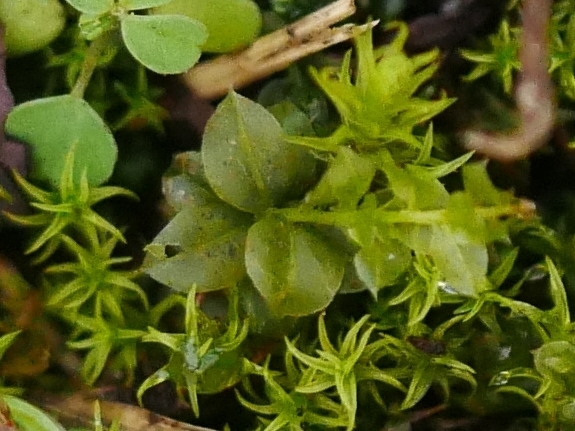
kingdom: Plantae
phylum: Bryophyta
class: Bryopsida
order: Bryales
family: Mniaceae
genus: Plagiomnium
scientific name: Plagiomnium cuspidatum
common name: Woodsy leafy moss
